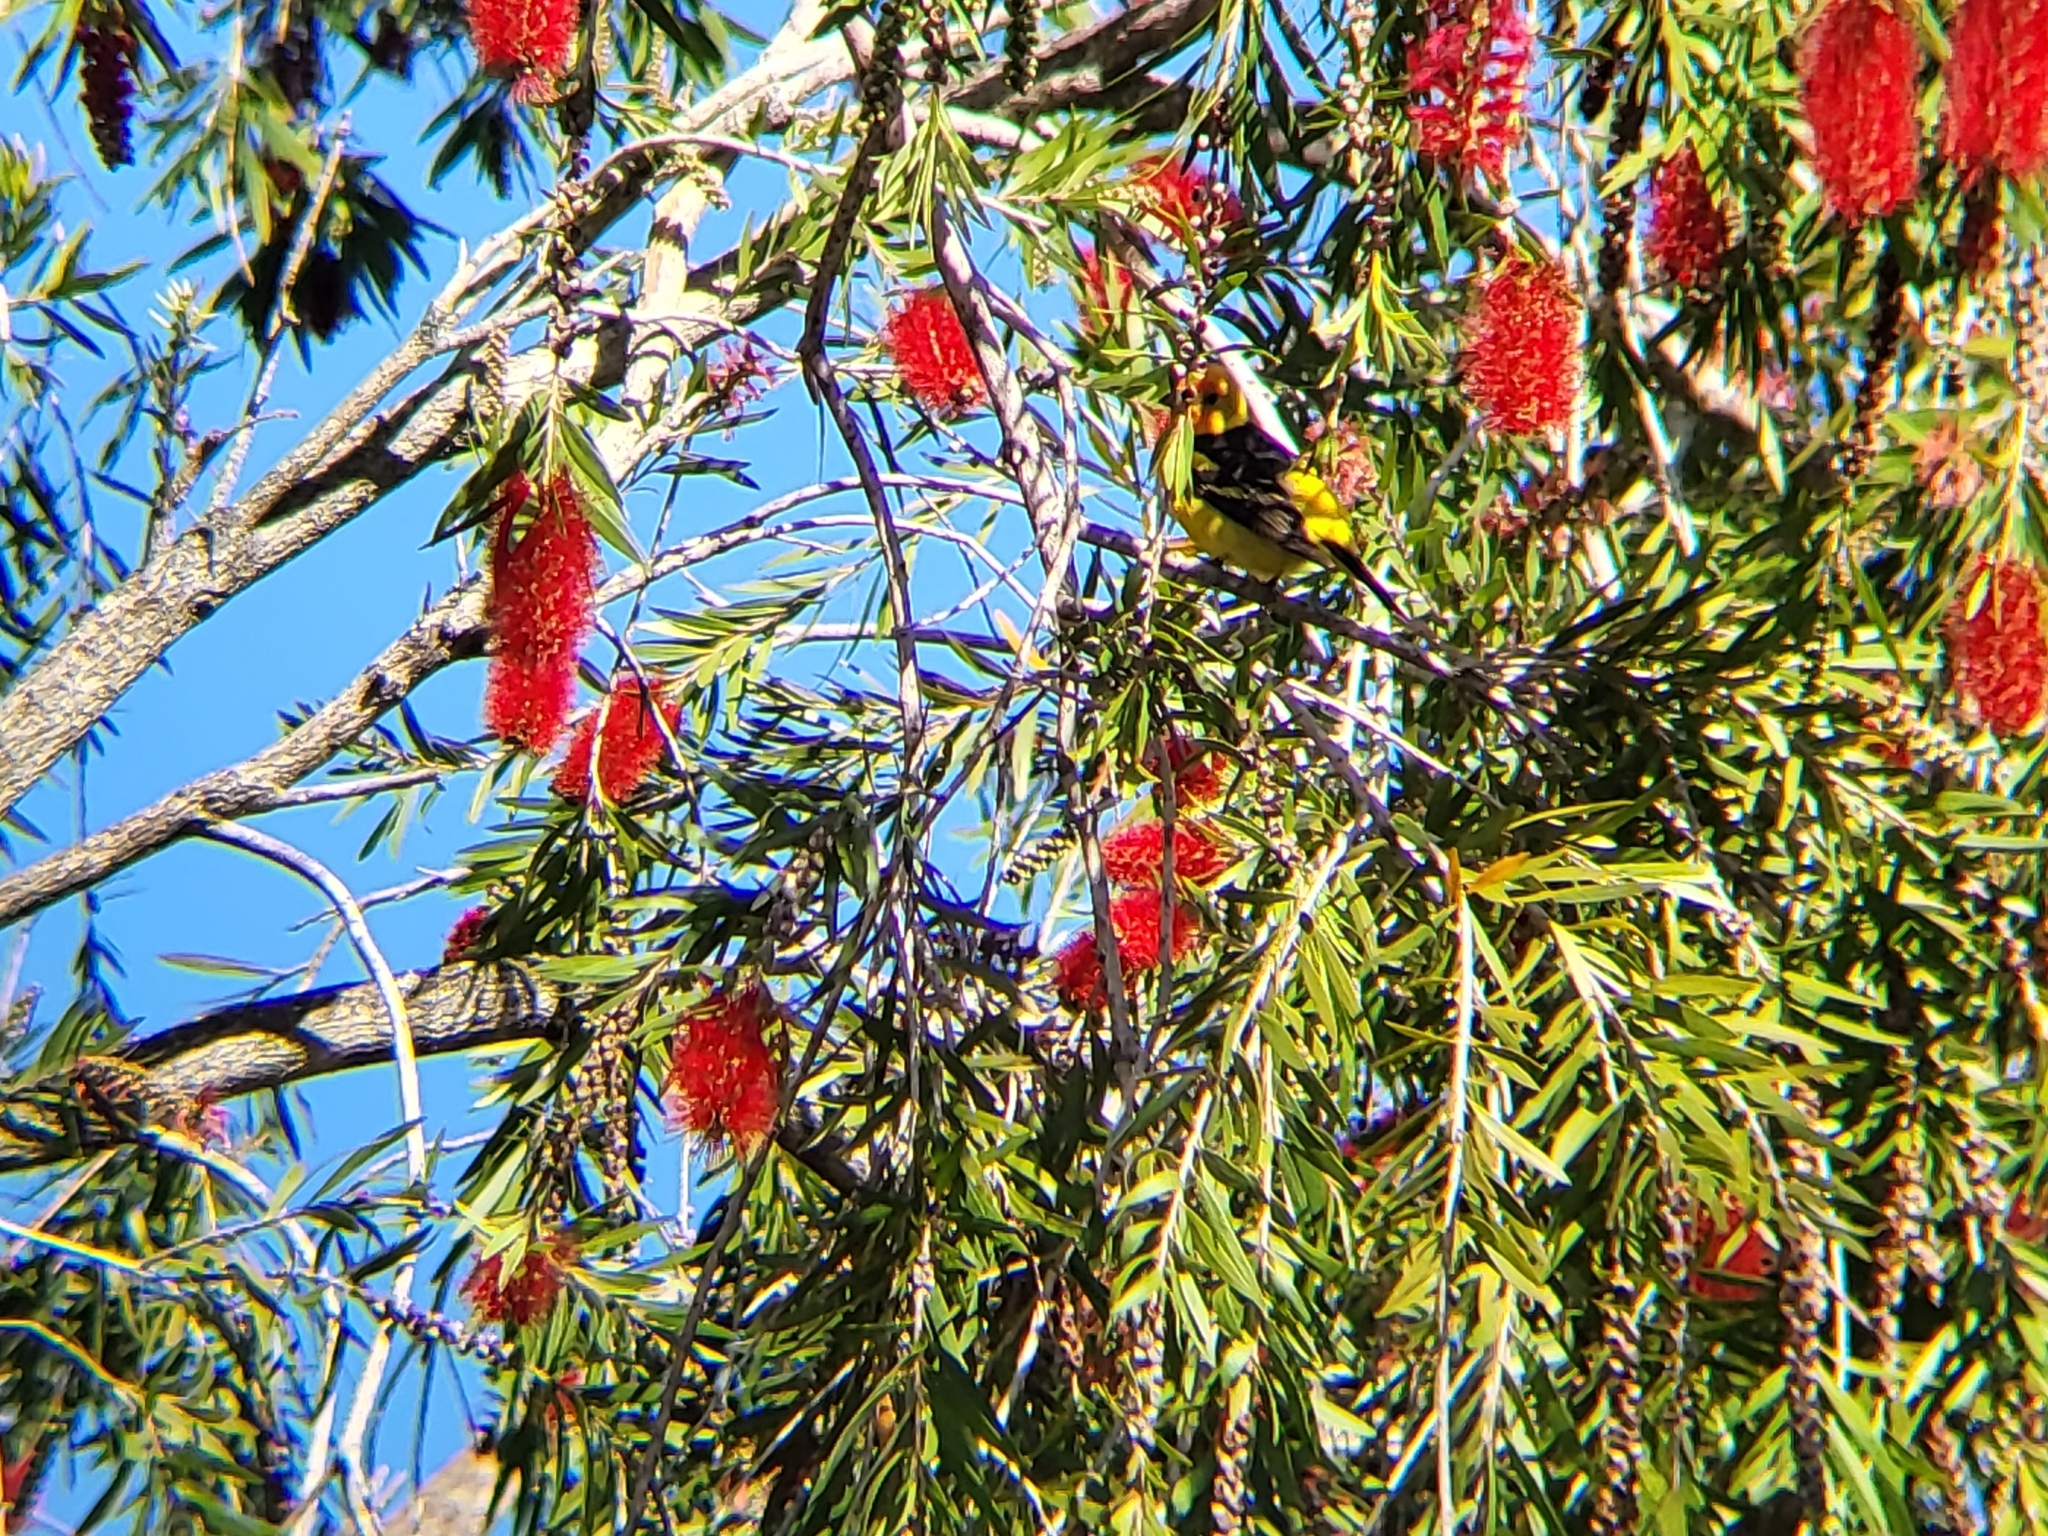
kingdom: Animalia
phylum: Chordata
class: Aves
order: Passeriformes
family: Cardinalidae
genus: Piranga
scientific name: Piranga ludoviciana
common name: Western tanager
